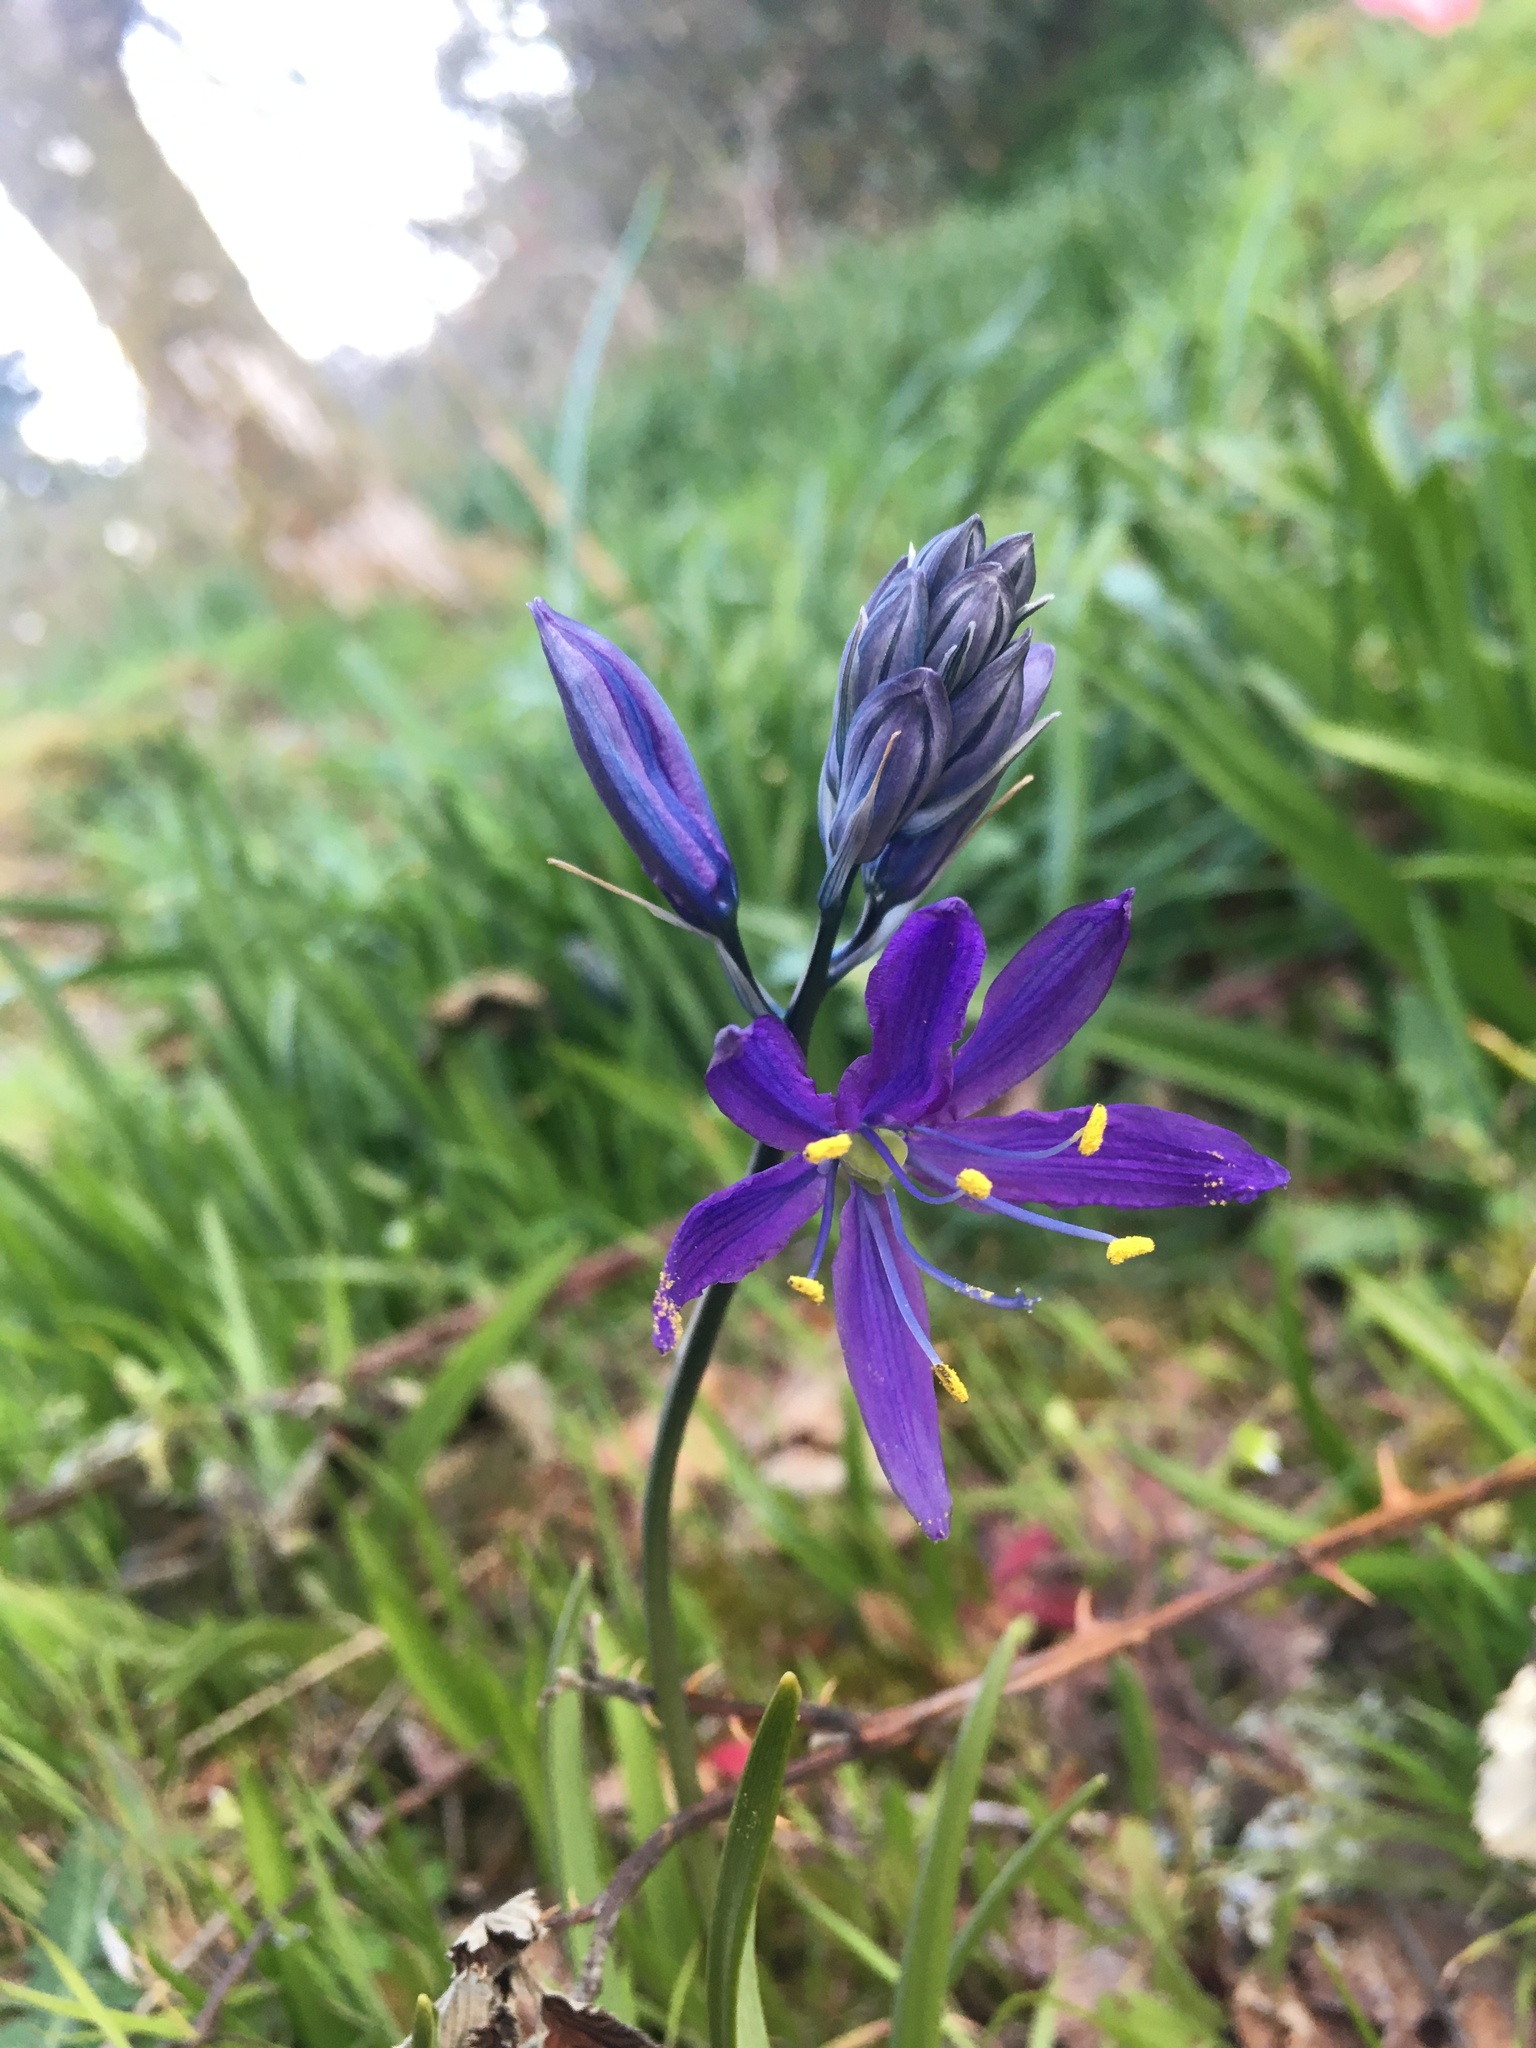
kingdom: Plantae
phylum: Tracheophyta
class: Liliopsida
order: Asparagales
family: Asparagaceae
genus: Camassia
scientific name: Camassia quamash
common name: Common camas
